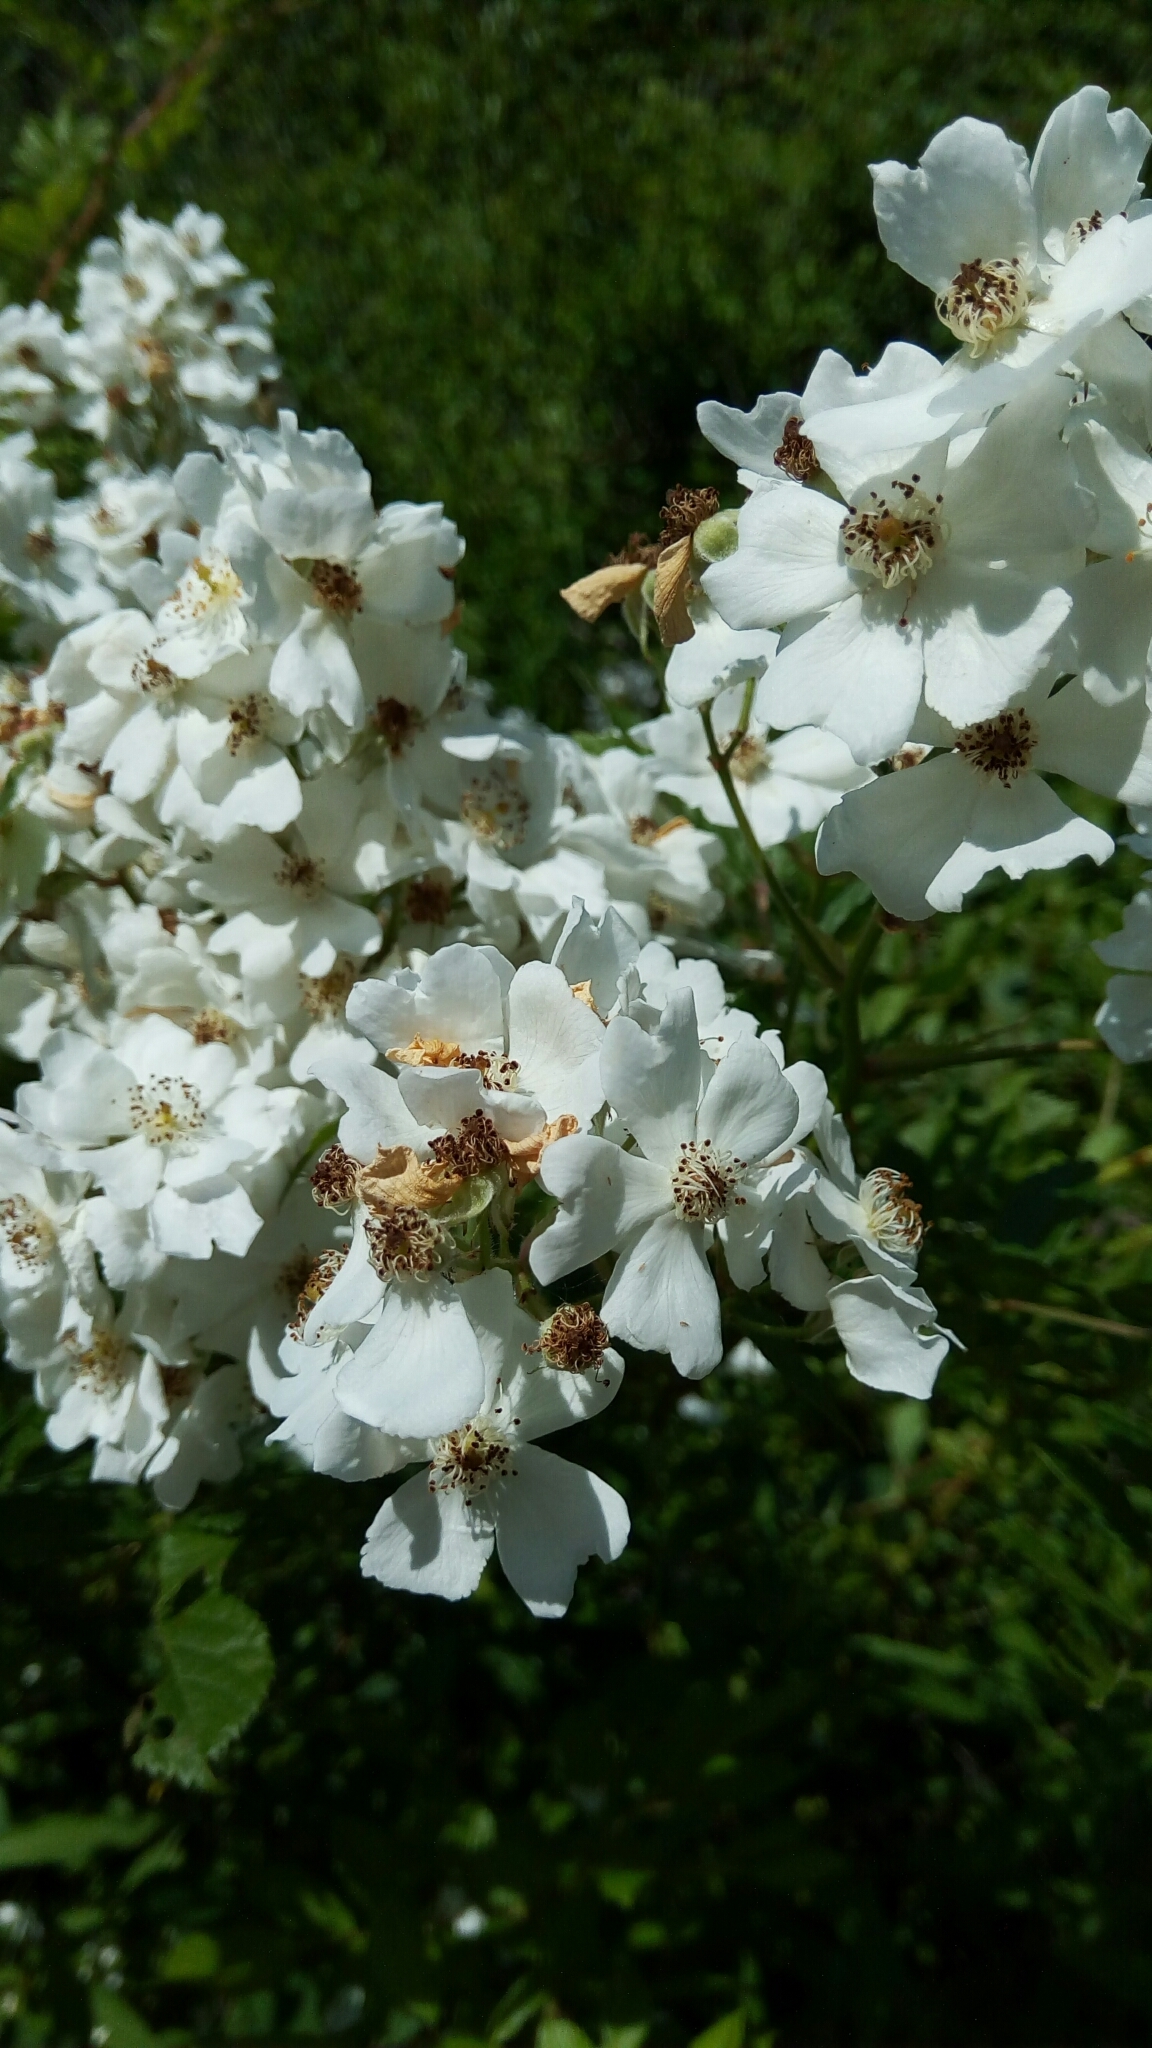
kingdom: Plantae
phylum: Tracheophyta
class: Magnoliopsida
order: Rosales
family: Rosaceae
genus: Rosa
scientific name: Rosa multiflora
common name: Multiflora rose
